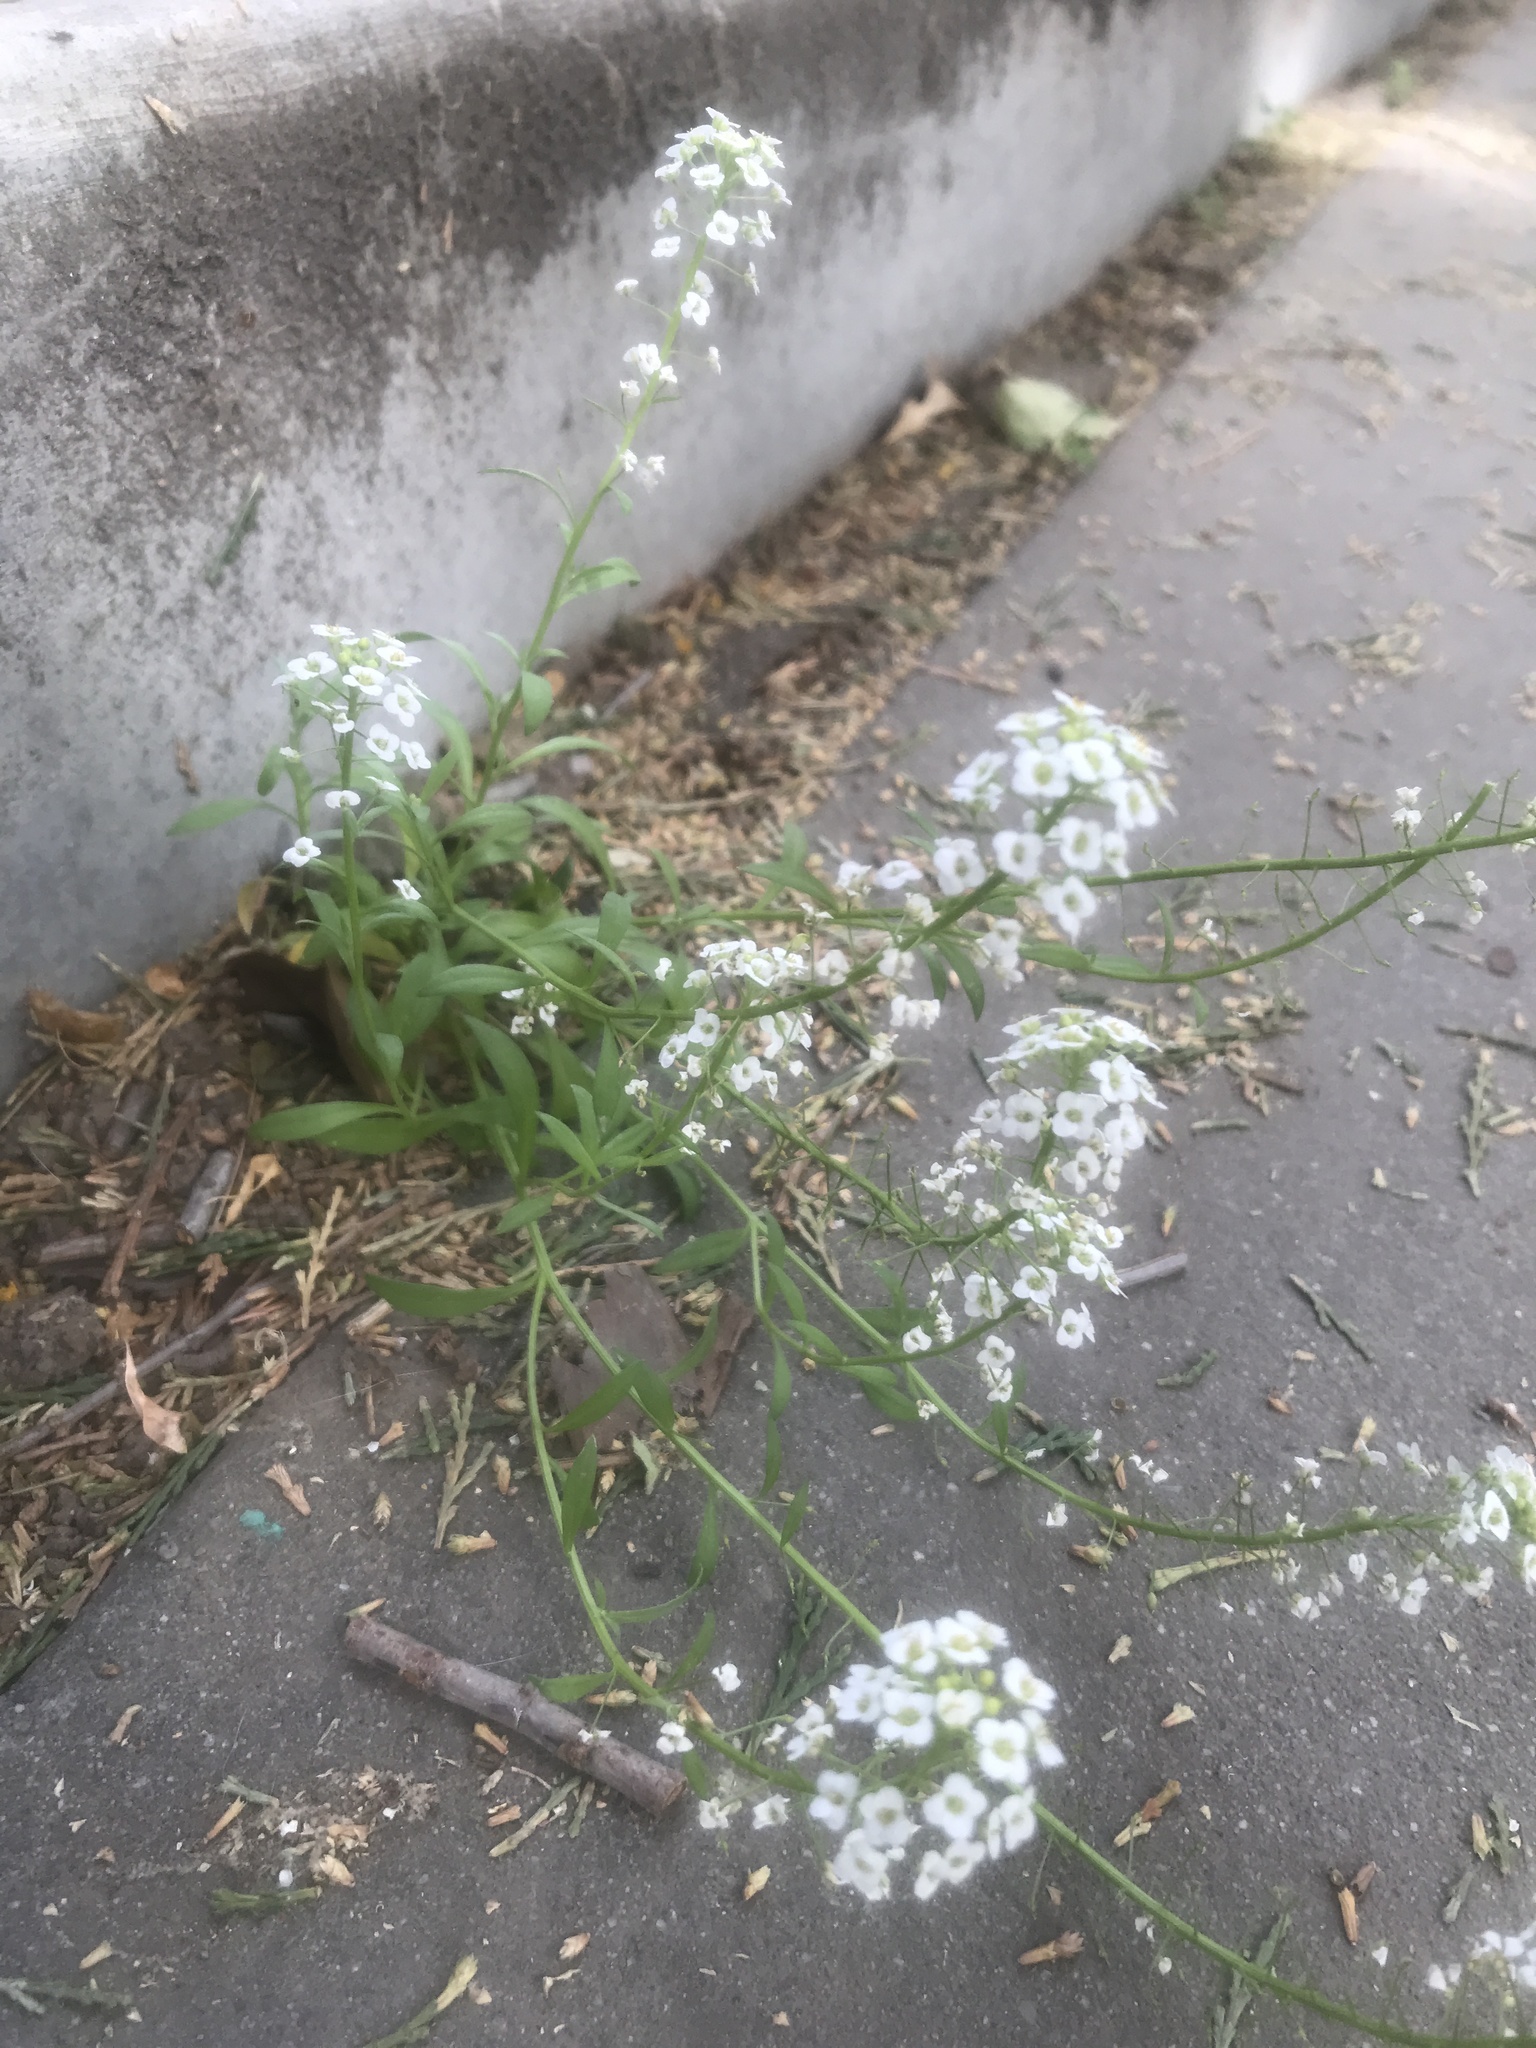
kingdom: Plantae
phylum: Tracheophyta
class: Magnoliopsida
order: Brassicales
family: Brassicaceae
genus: Lobularia
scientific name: Lobularia maritima
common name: Sweet alison
